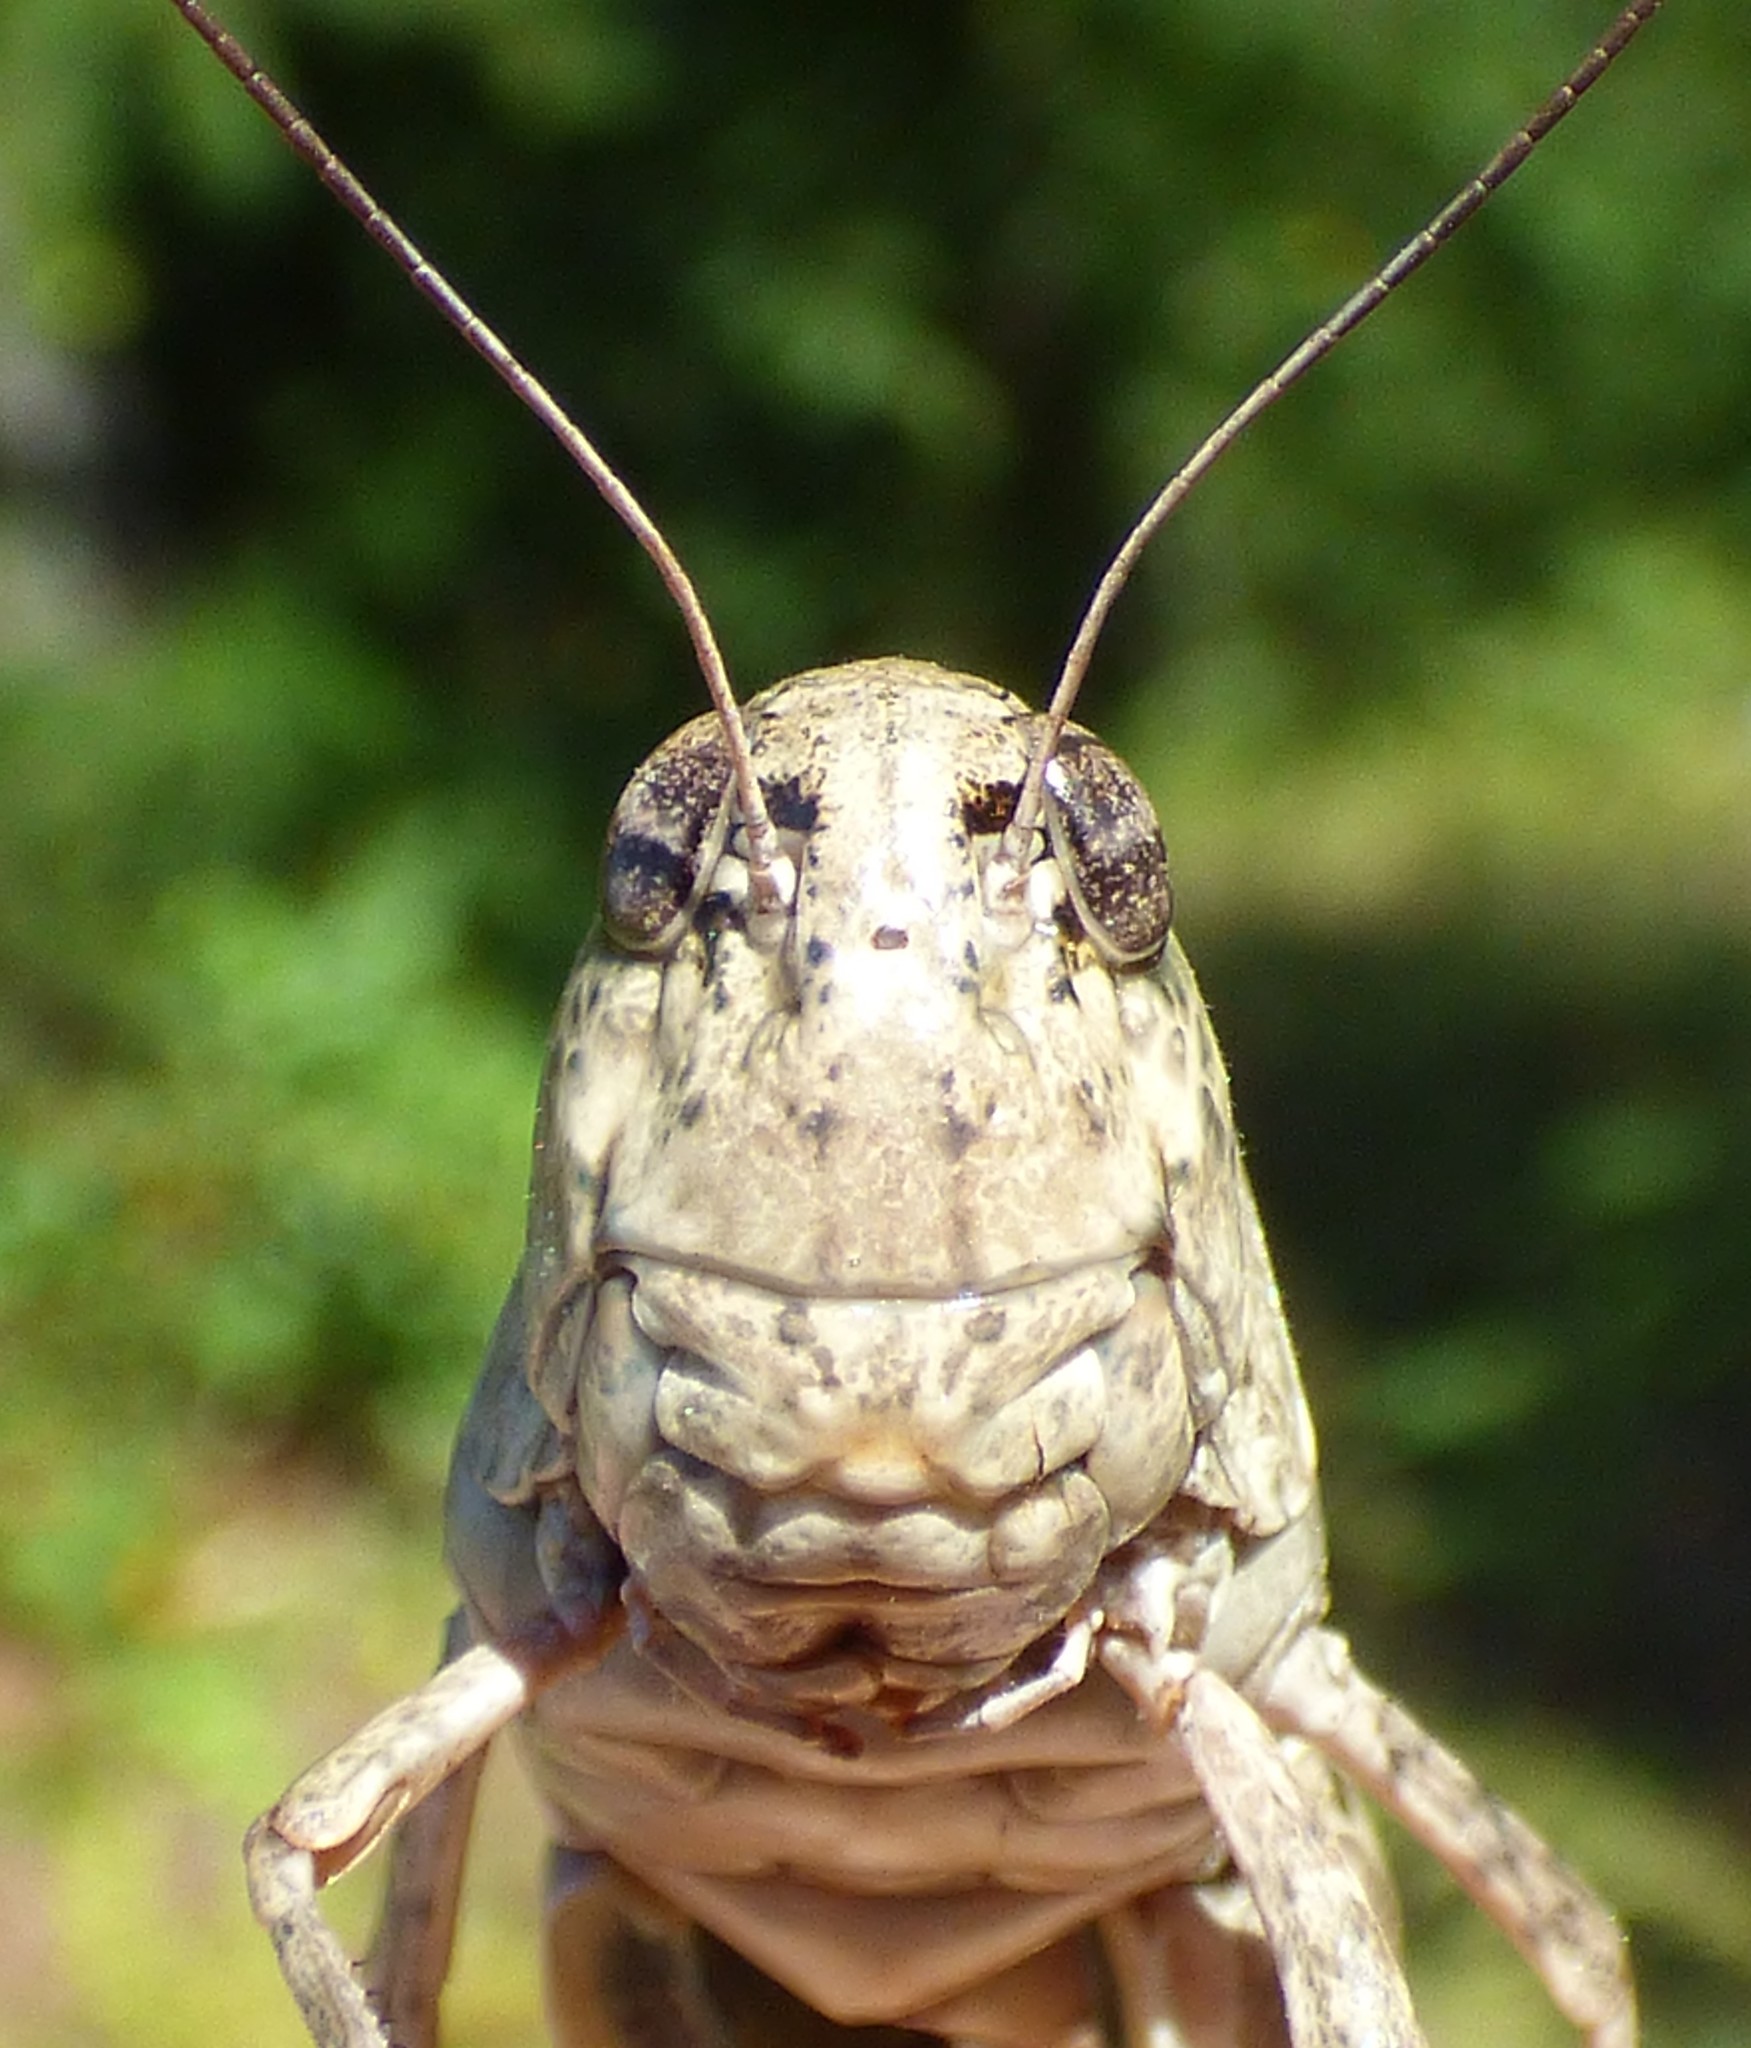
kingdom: Animalia
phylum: Arthropoda
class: Insecta
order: Orthoptera
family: Acrididae
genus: Hippiscus
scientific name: Hippiscus ocelote
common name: Wrinkled grasshopper
